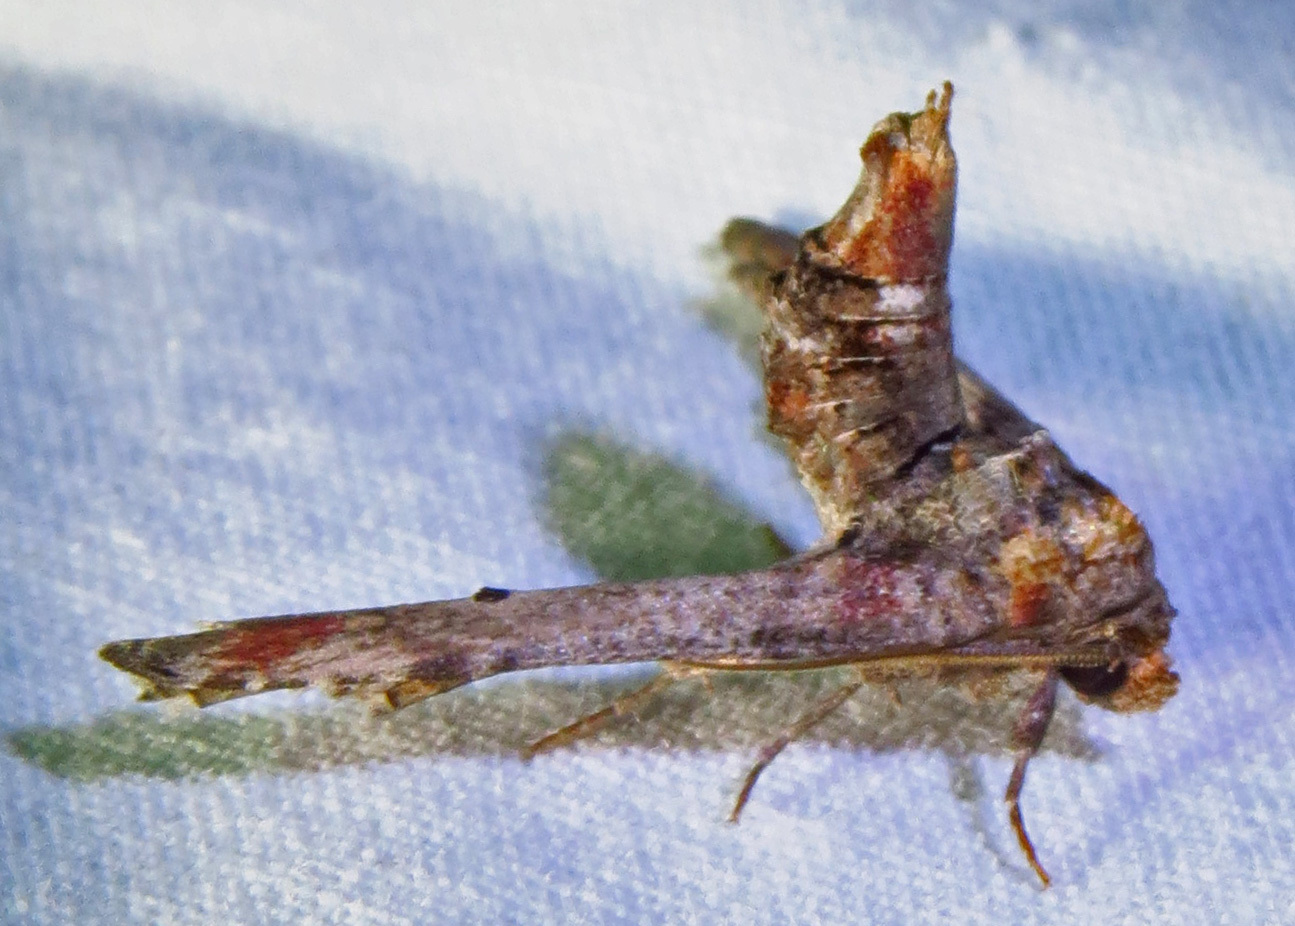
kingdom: Animalia
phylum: Arthropoda
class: Insecta
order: Lepidoptera
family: Euteliidae
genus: Marathyssa
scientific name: Marathyssa inficita
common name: Dark marathyssa moth
